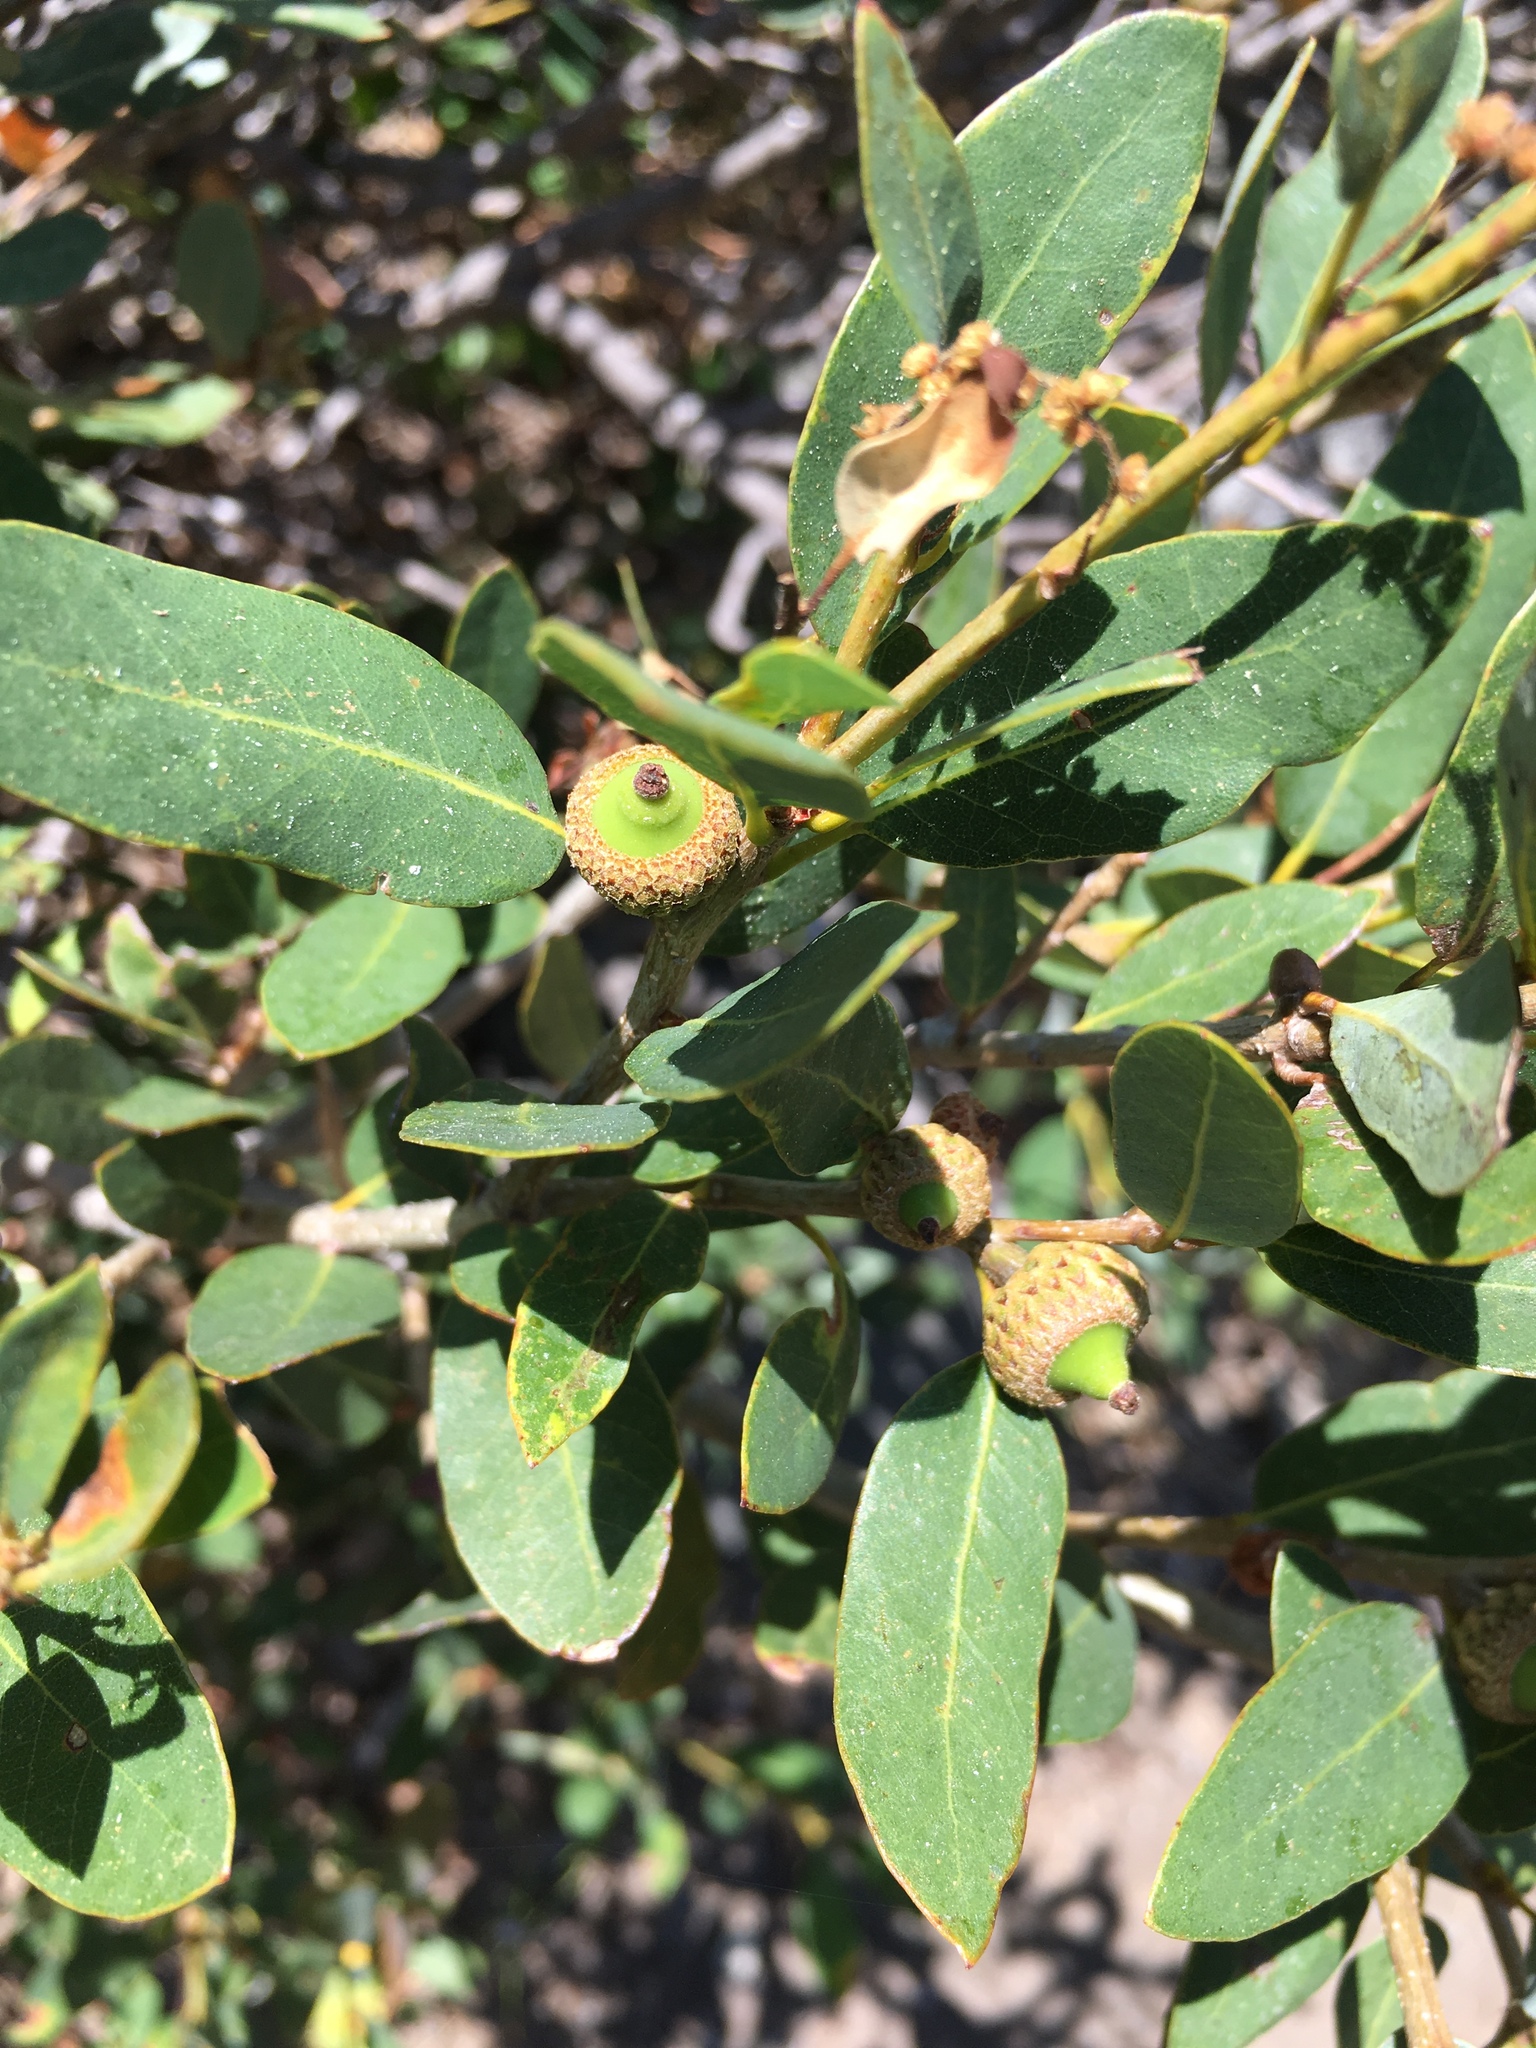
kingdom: Plantae
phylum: Tracheophyta
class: Magnoliopsida
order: Fagales
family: Fagaceae
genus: Quercus
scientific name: Quercus vacciniifolia
